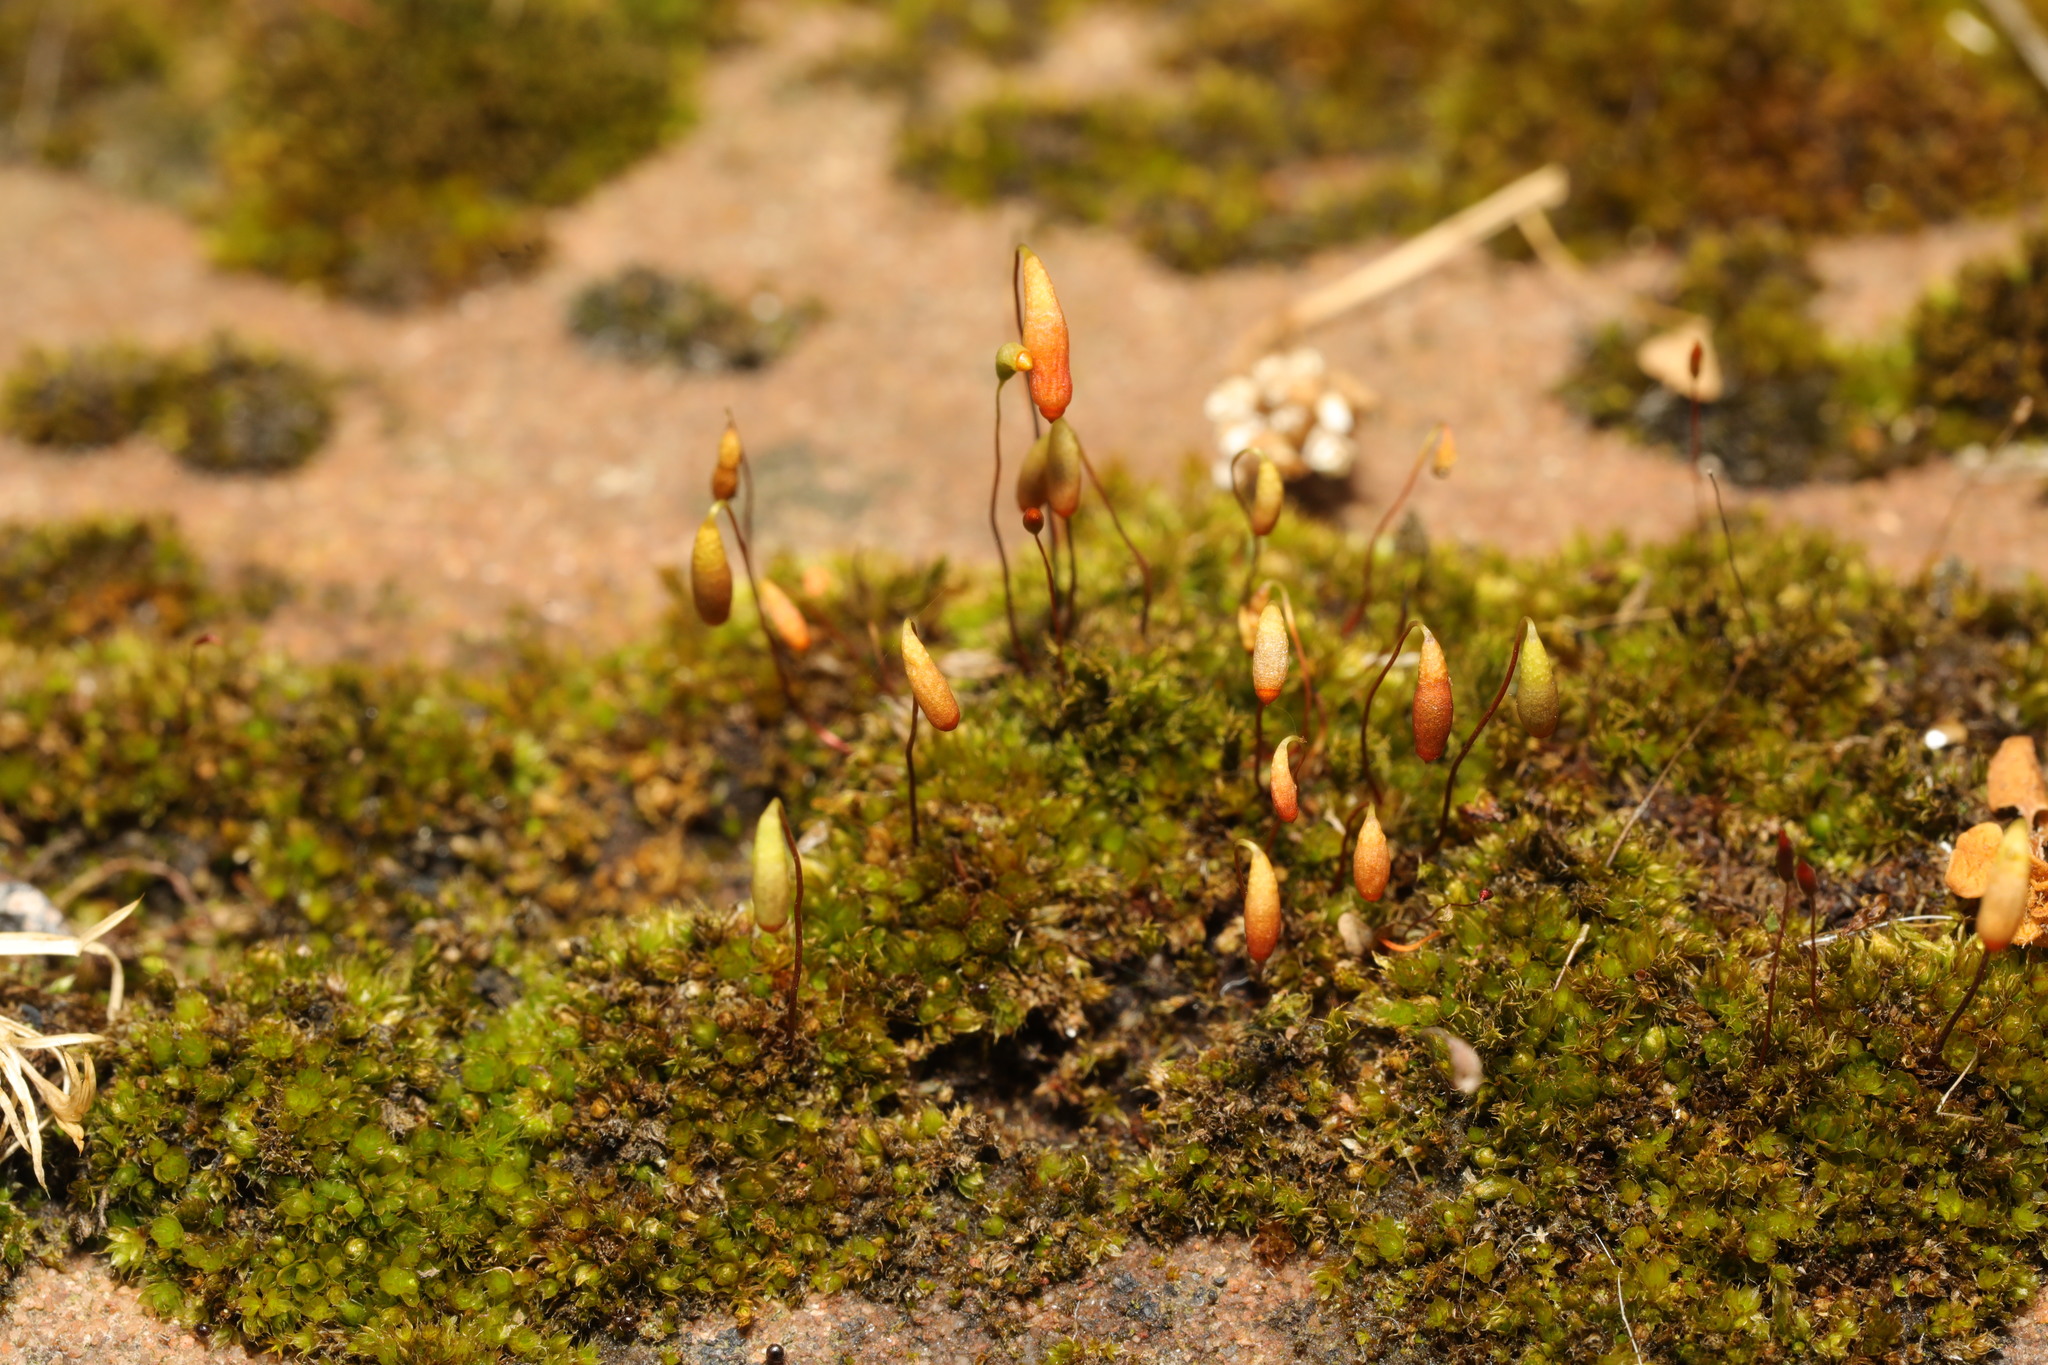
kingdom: Plantae
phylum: Bryophyta
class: Bryopsida
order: Bryales
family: Bryaceae
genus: Rosulabryum
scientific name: Rosulabryum capillare
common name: Capillary thread-moss
